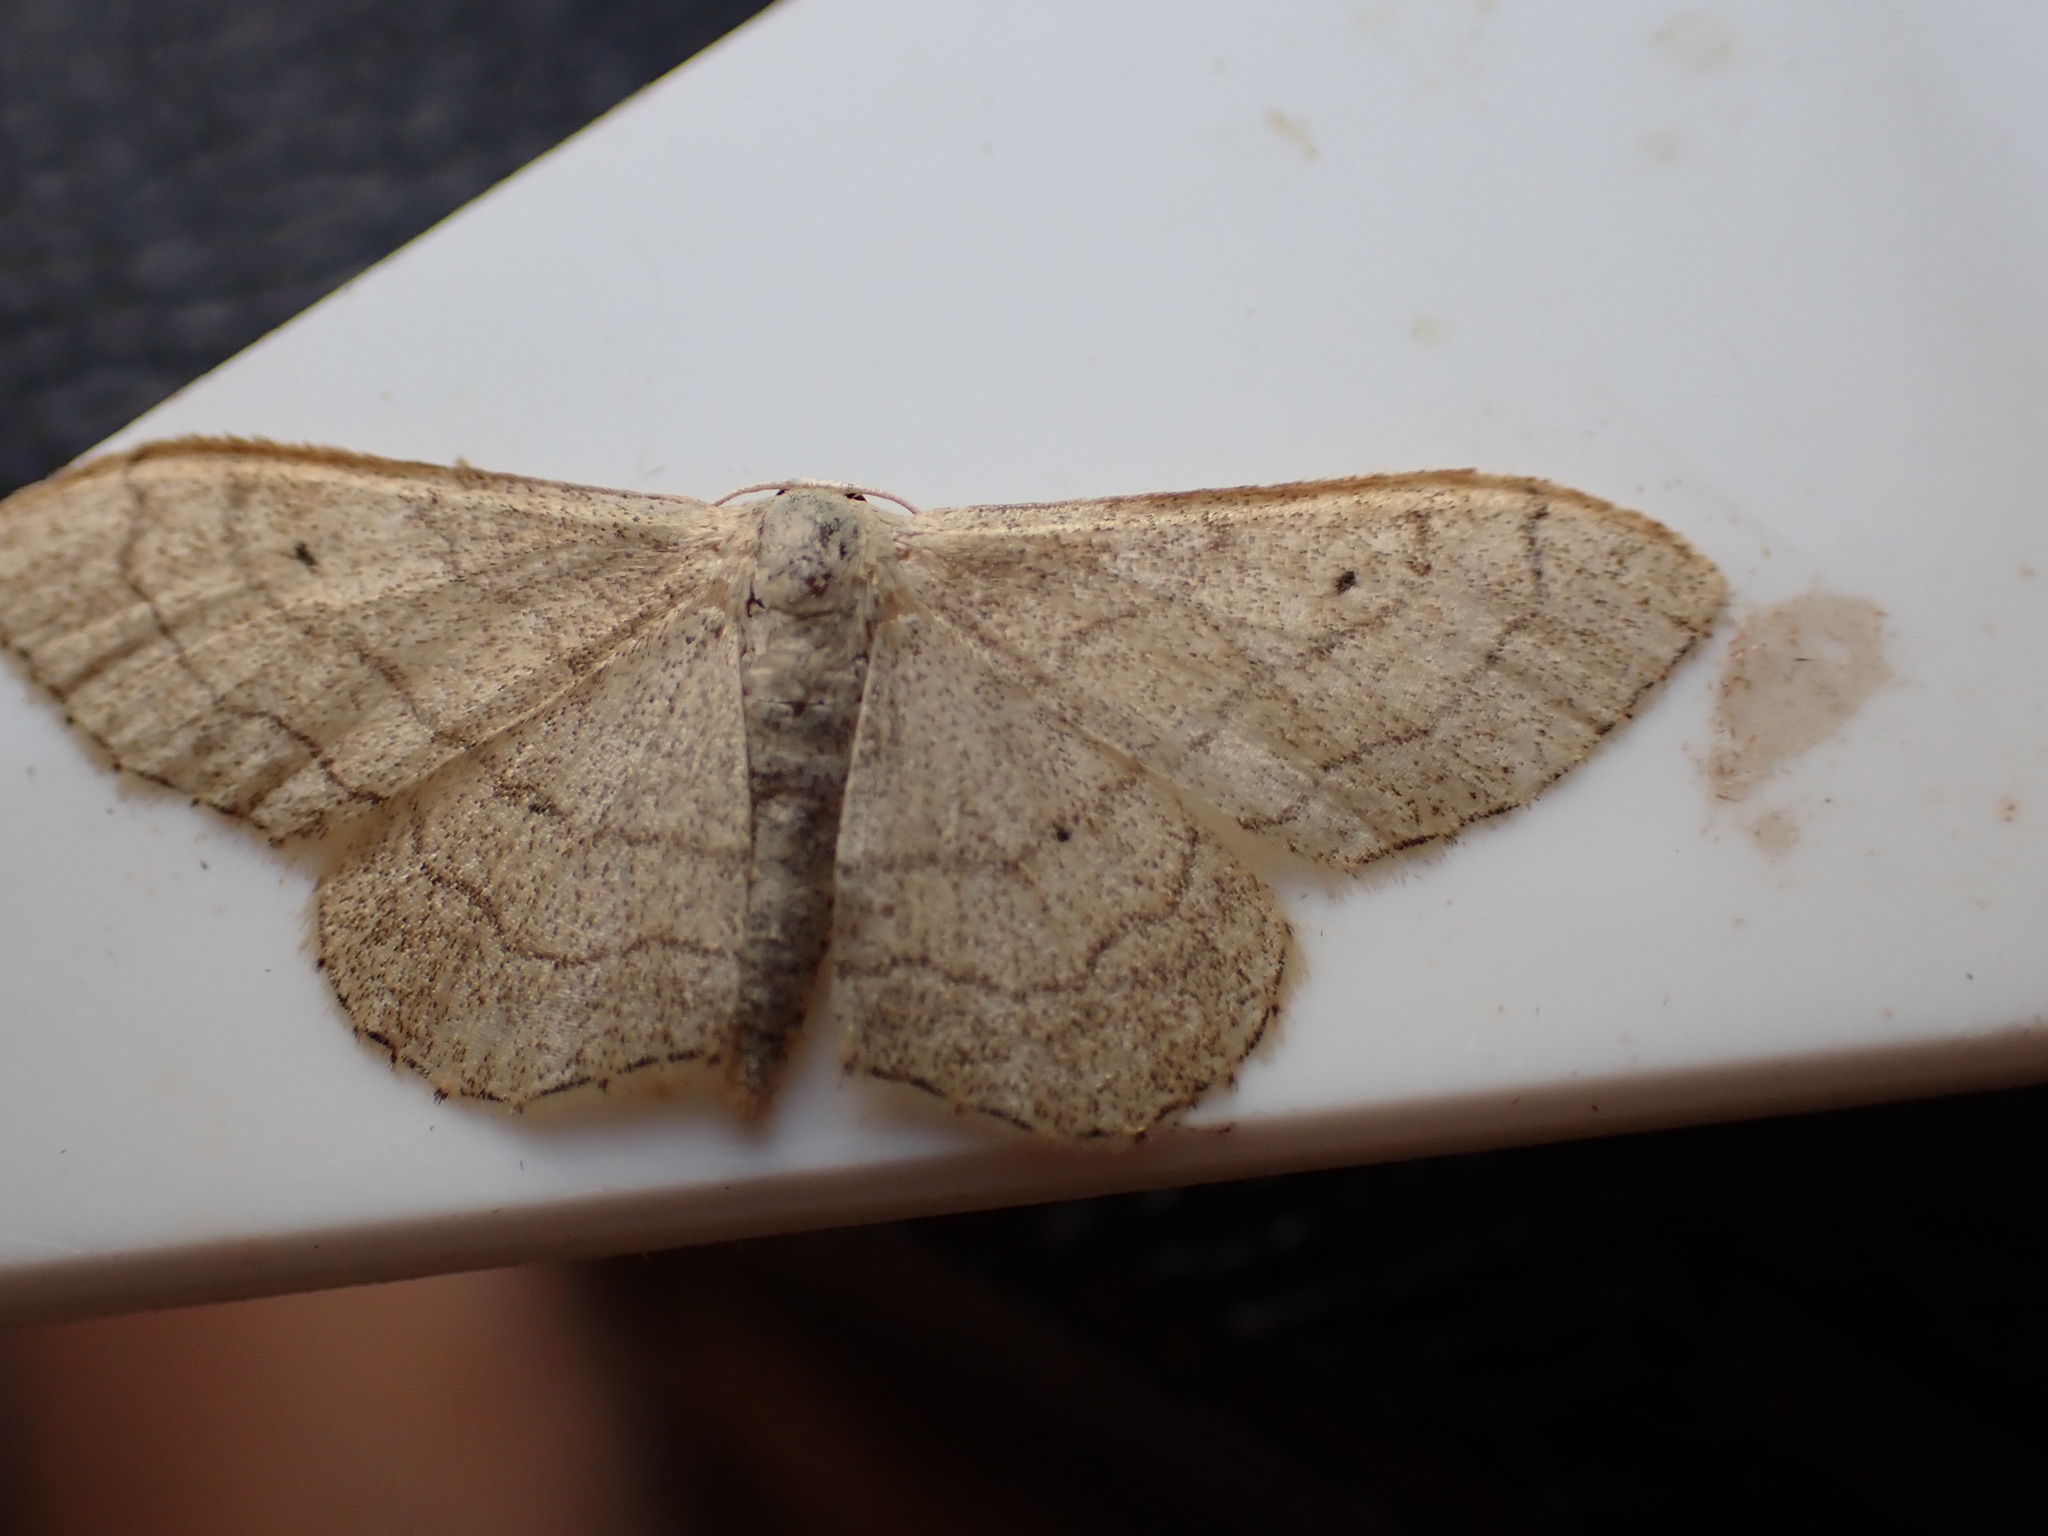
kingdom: Animalia
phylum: Arthropoda
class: Insecta
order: Lepidoptera
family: Geometridae
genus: Idaea
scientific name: Idaea aversata
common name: Riband wave
